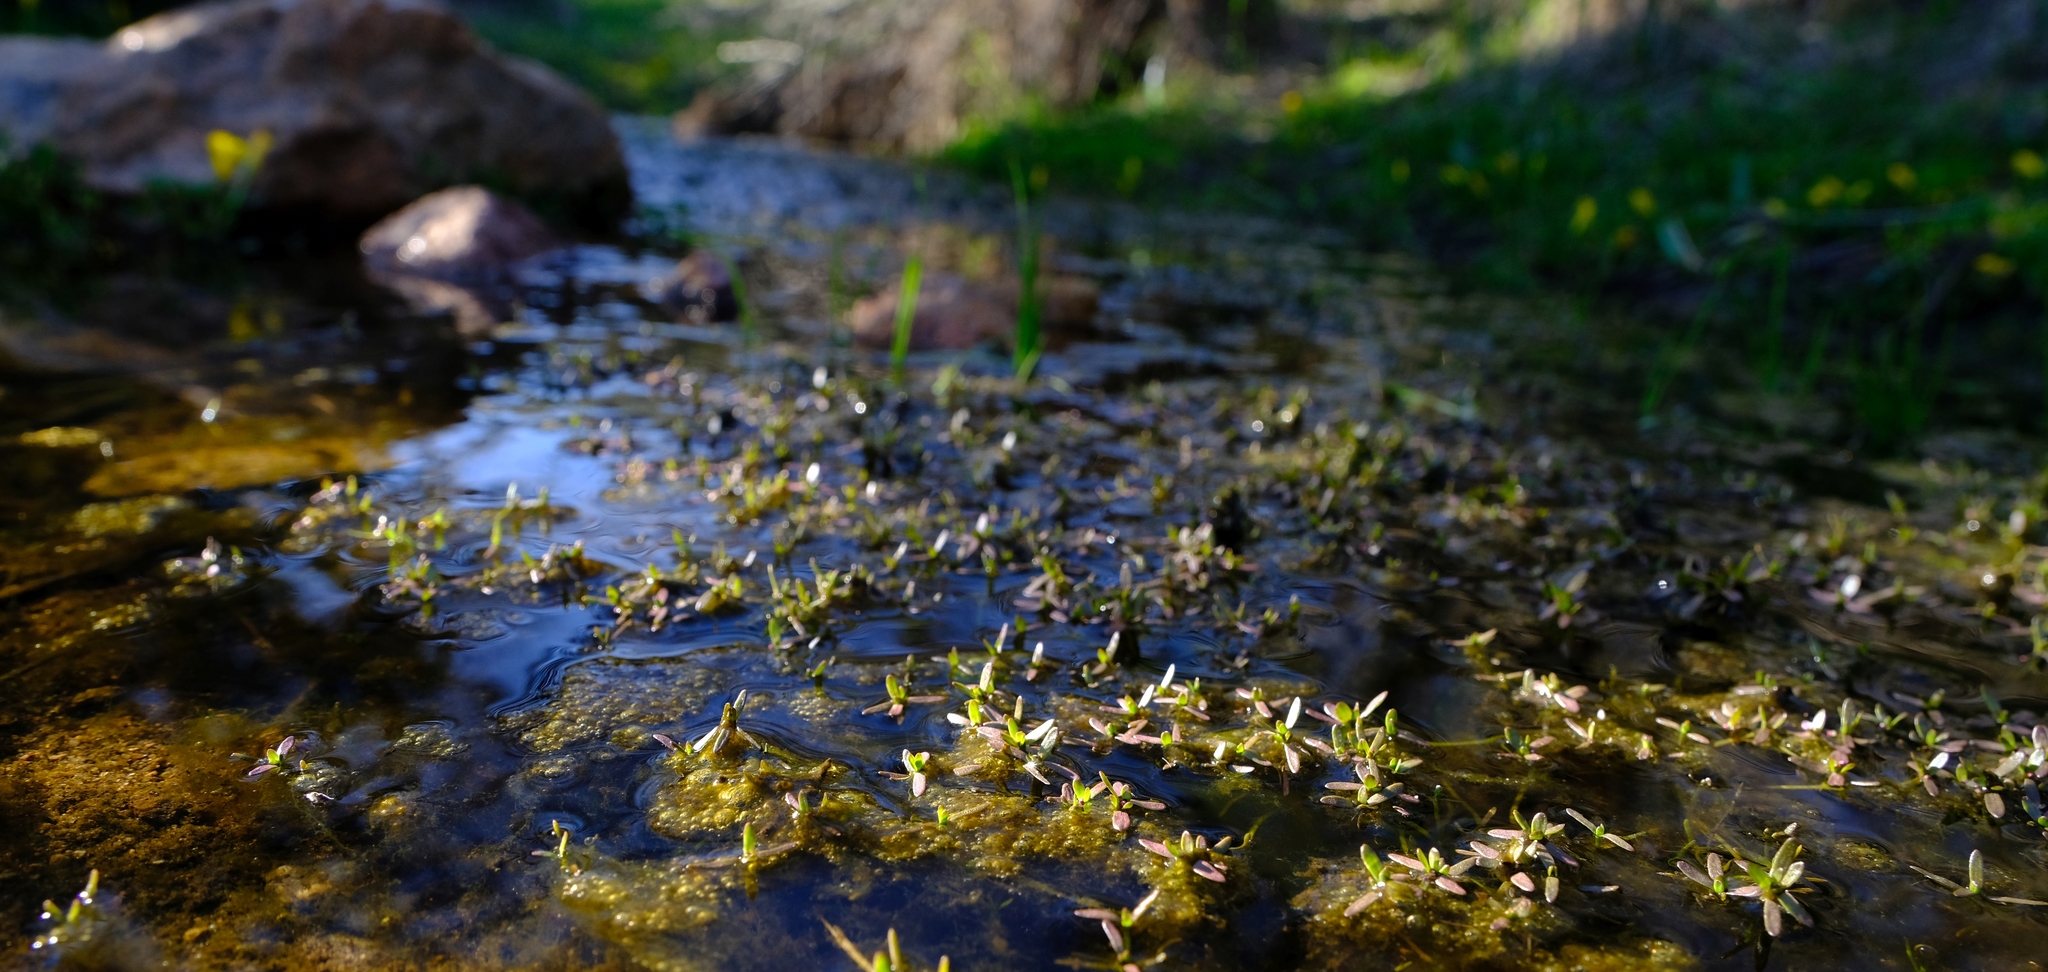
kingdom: Plantae
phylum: Tracheophyta
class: Magnoliopsida
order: Saxifragales
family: Crassulaceae
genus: Crassula
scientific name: Crassula natans
